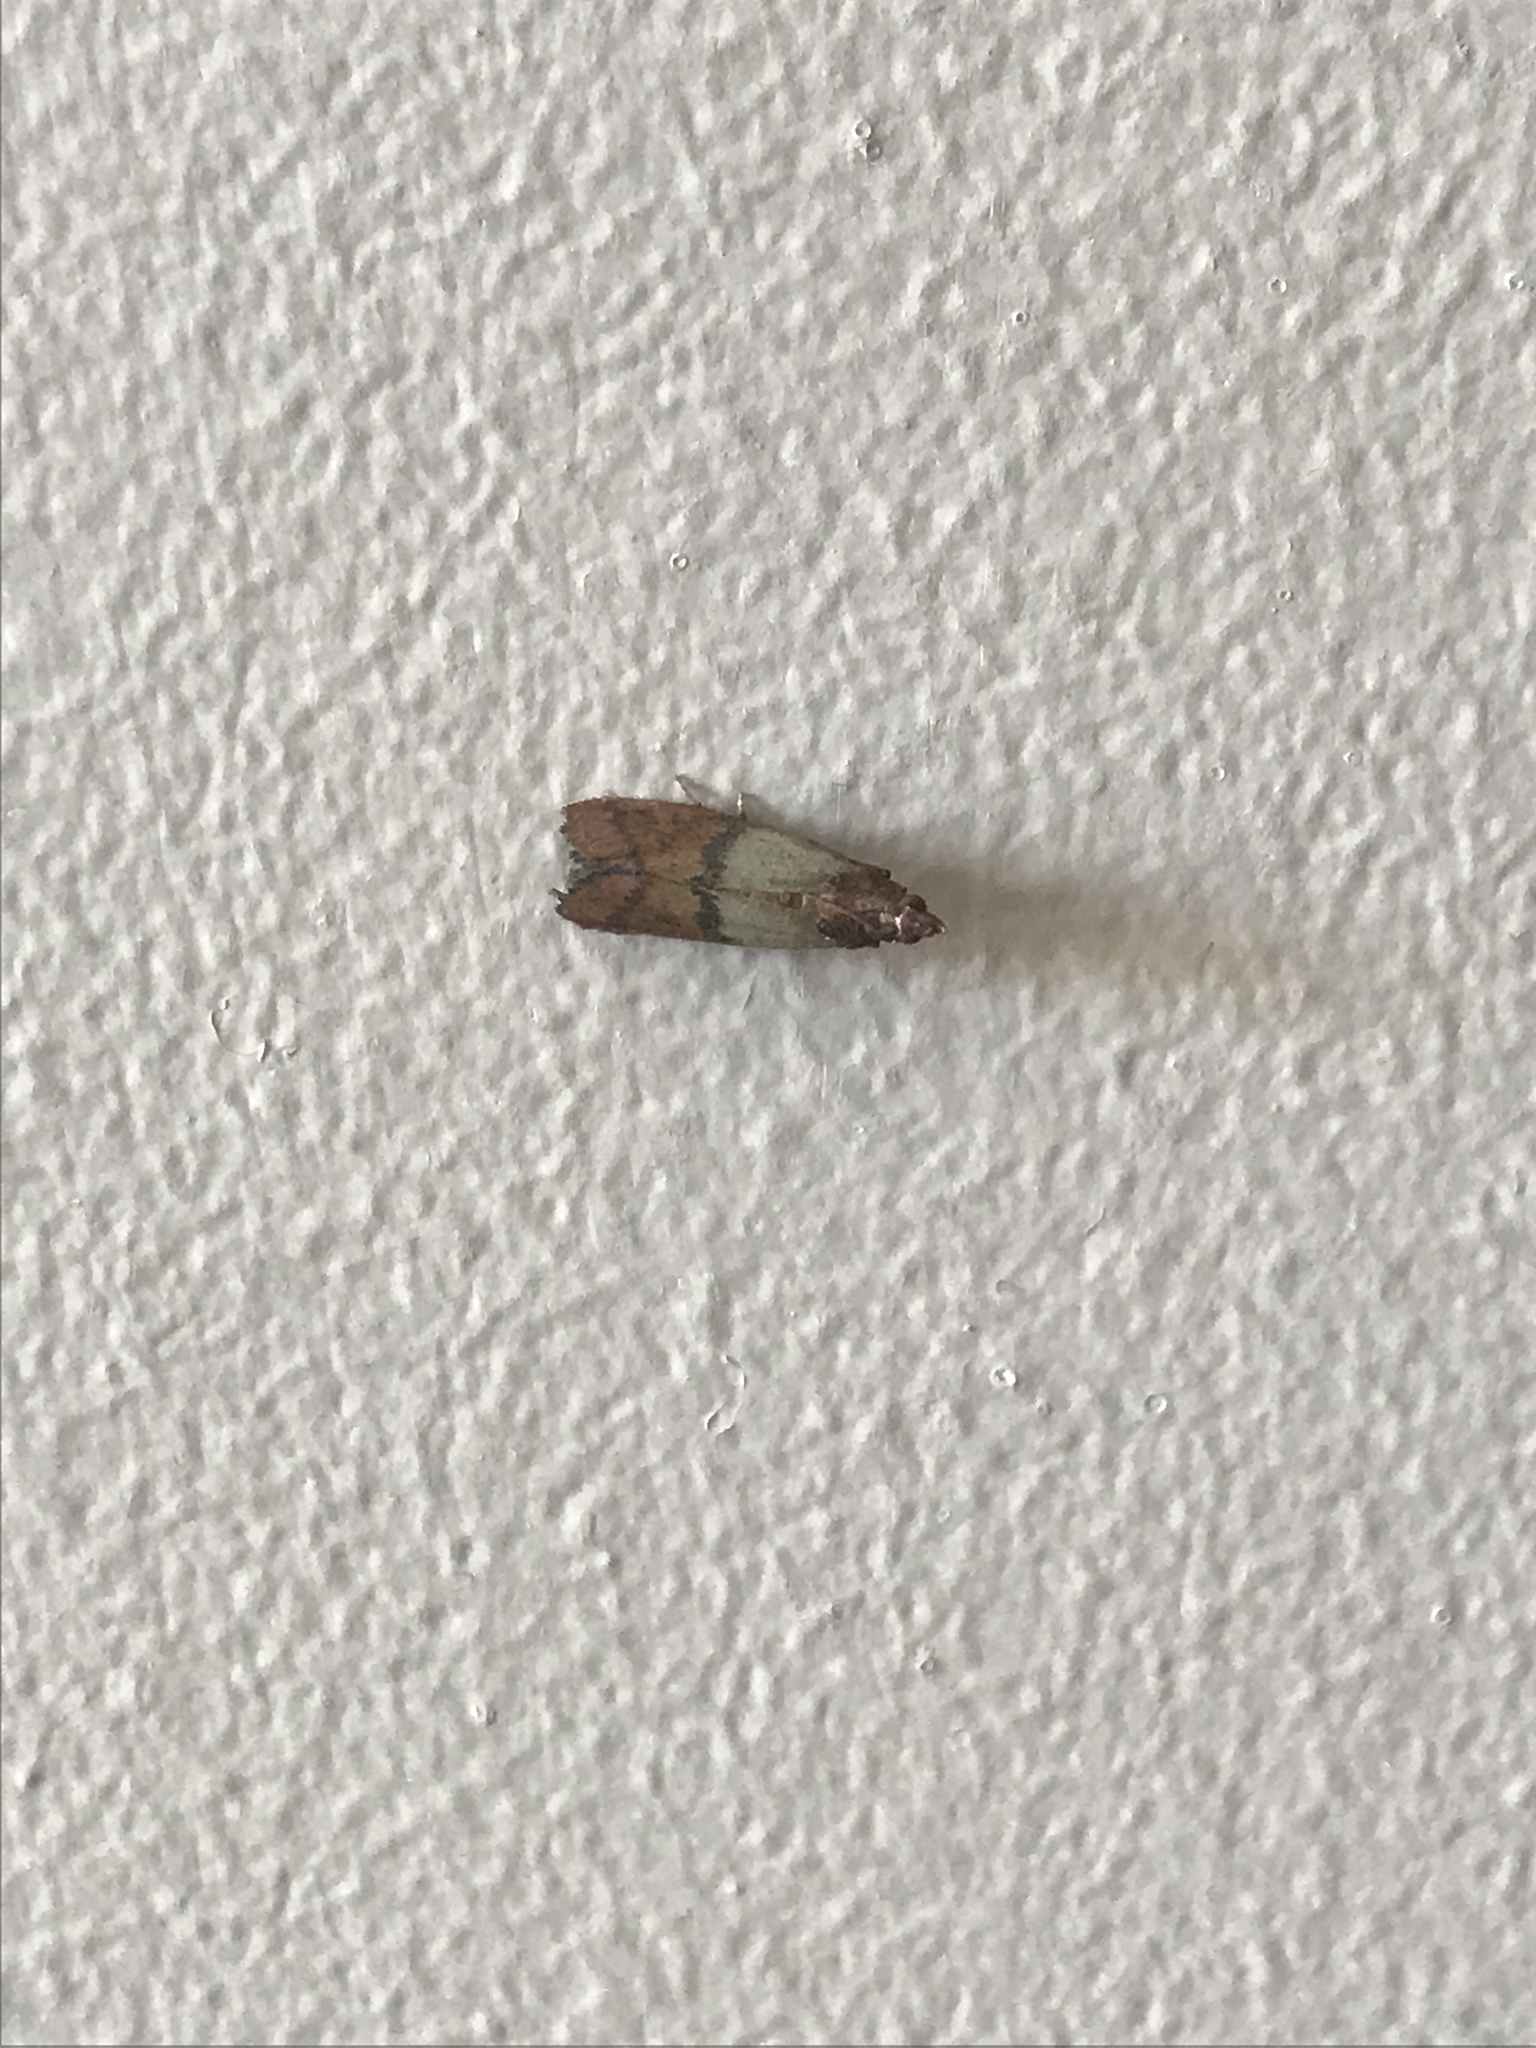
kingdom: Animalia
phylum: Arthropoda
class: Insecta
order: Lepidoptera
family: Pyralidae
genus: Plodia
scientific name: Plodia interpunctella
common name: Indian meal moth
